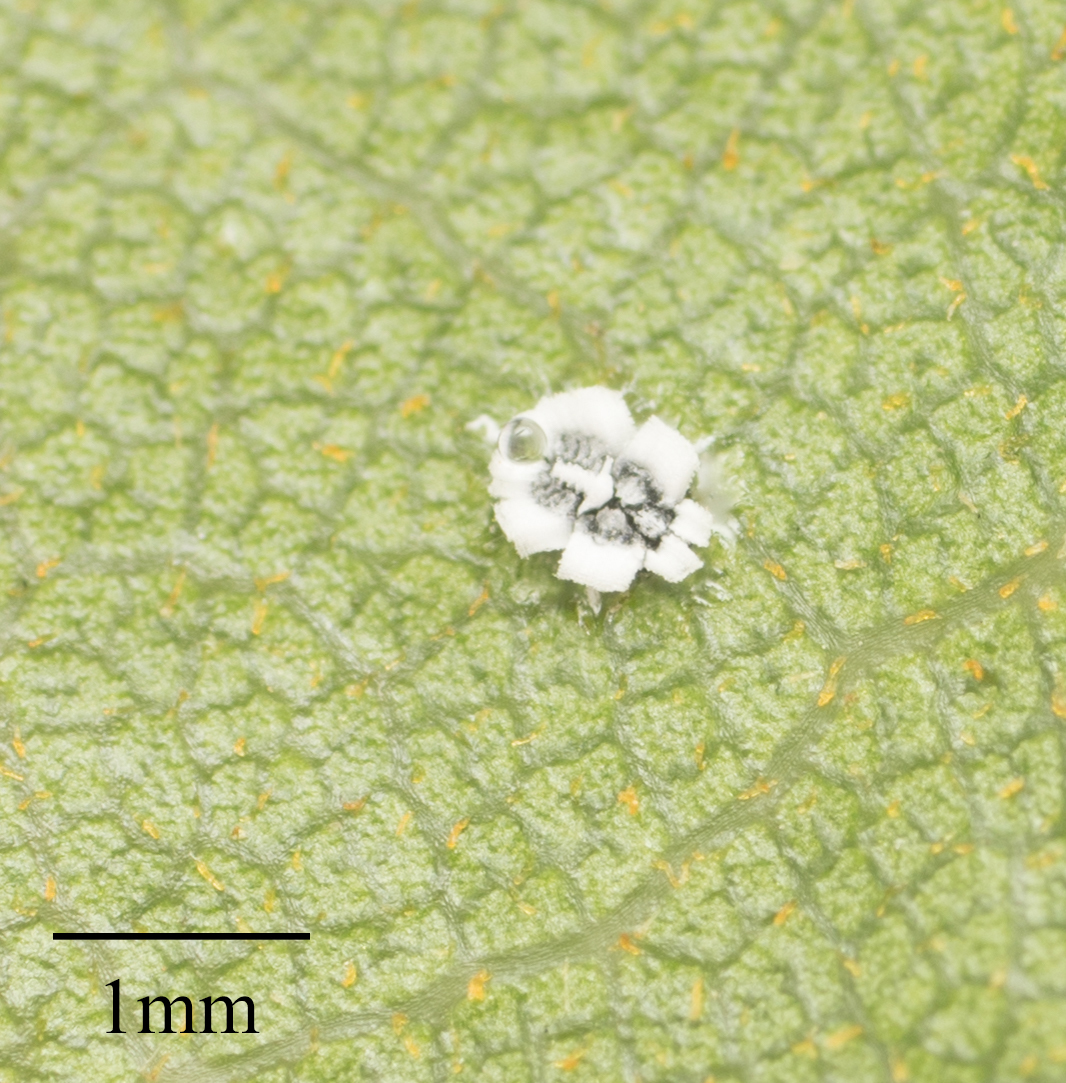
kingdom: Animalia
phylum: Arthropoda
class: Insecta
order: Hemiptera
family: Aleyrodidae
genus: Aleuroplatus
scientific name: Aleuroplatus coronata
